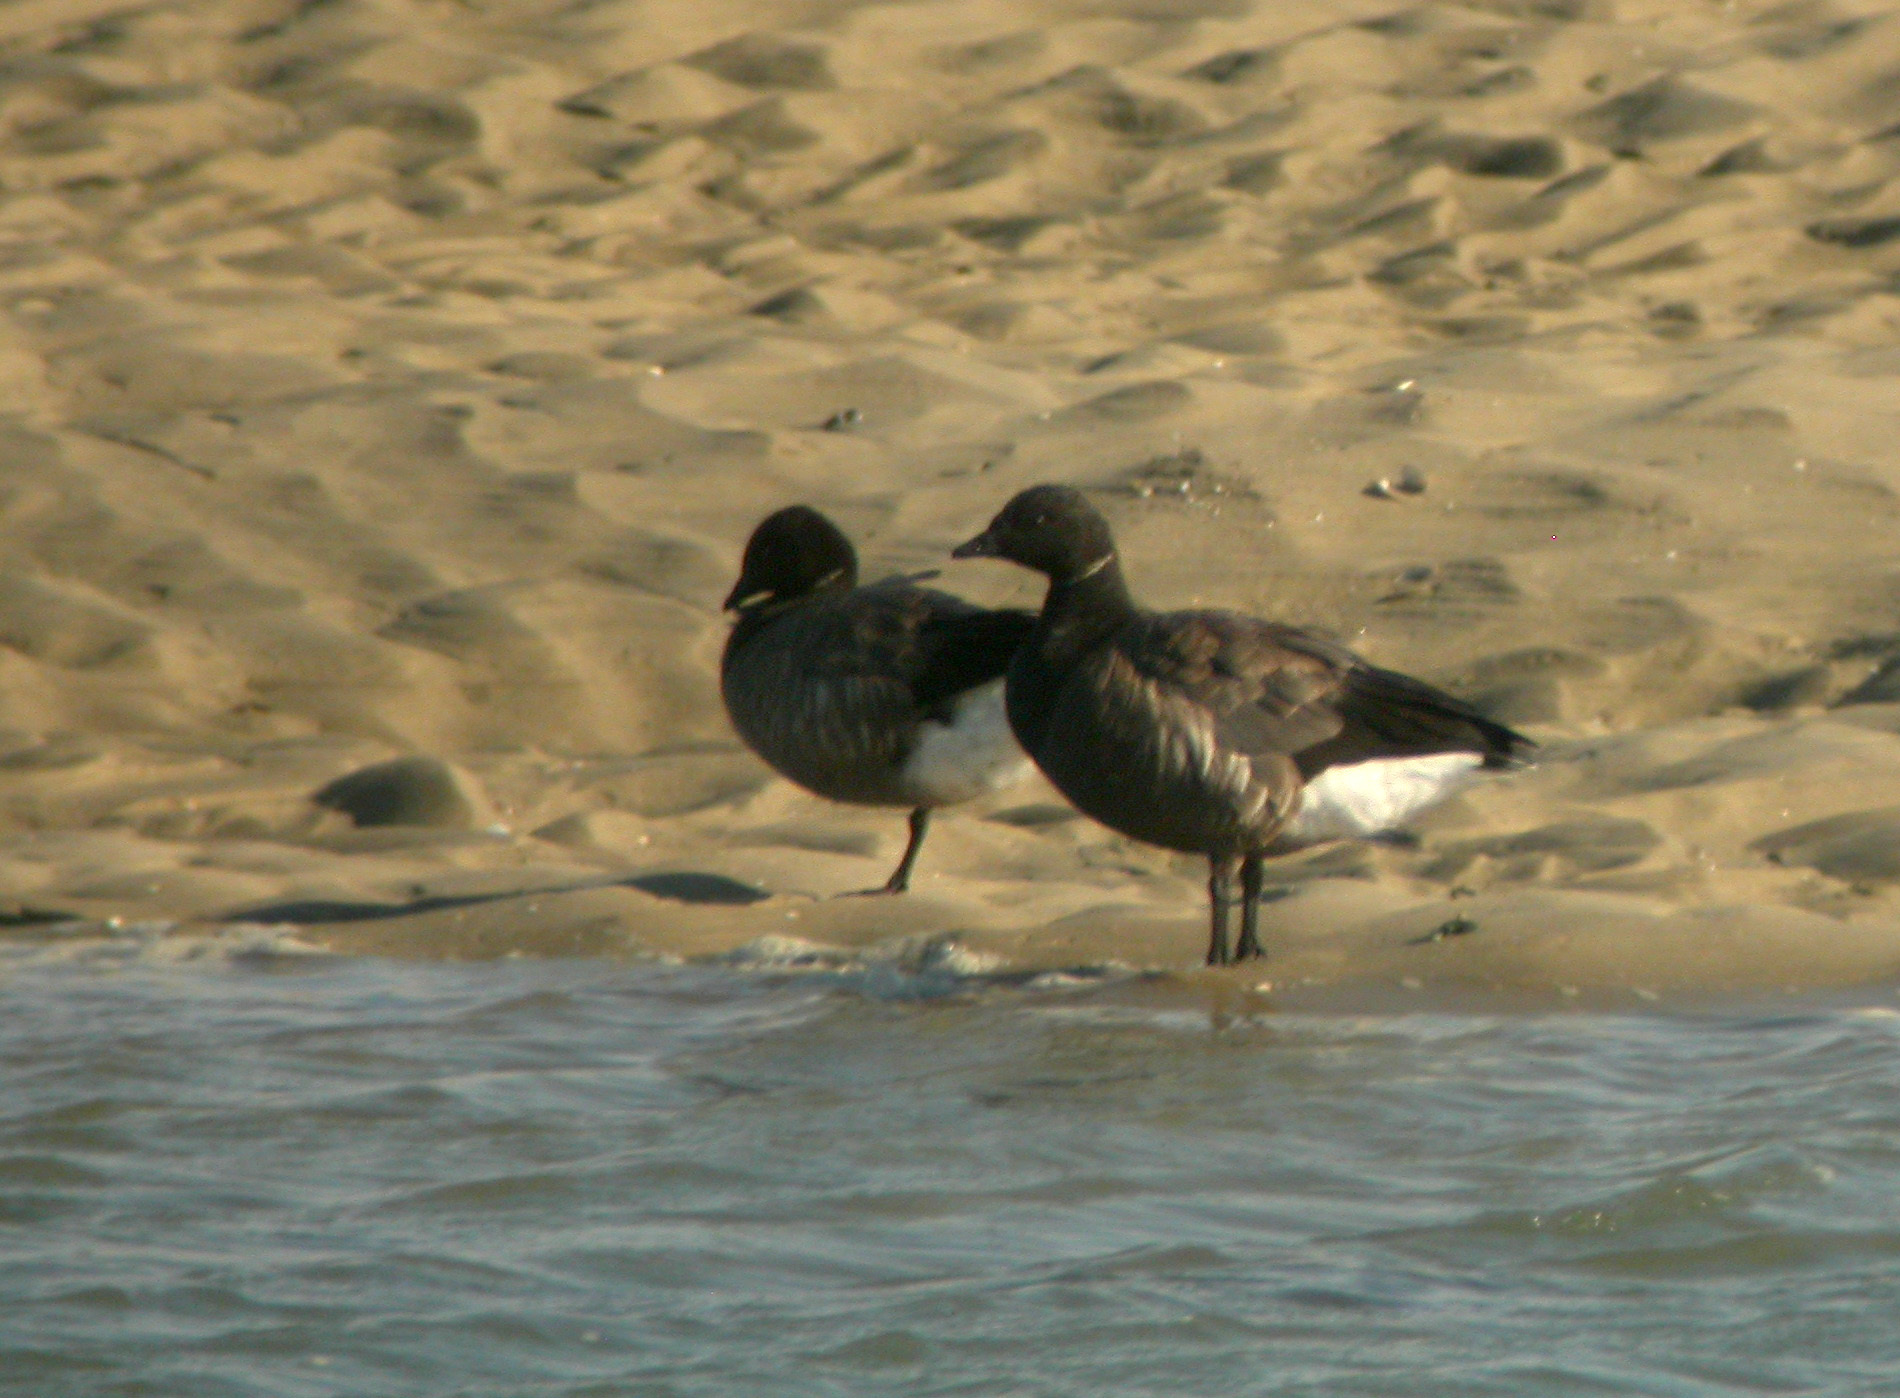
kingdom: Animalia
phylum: Chordata
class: Aves
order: Anseriformes
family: Anatidae
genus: Branta
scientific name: Branta bernicla
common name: Brant goose
